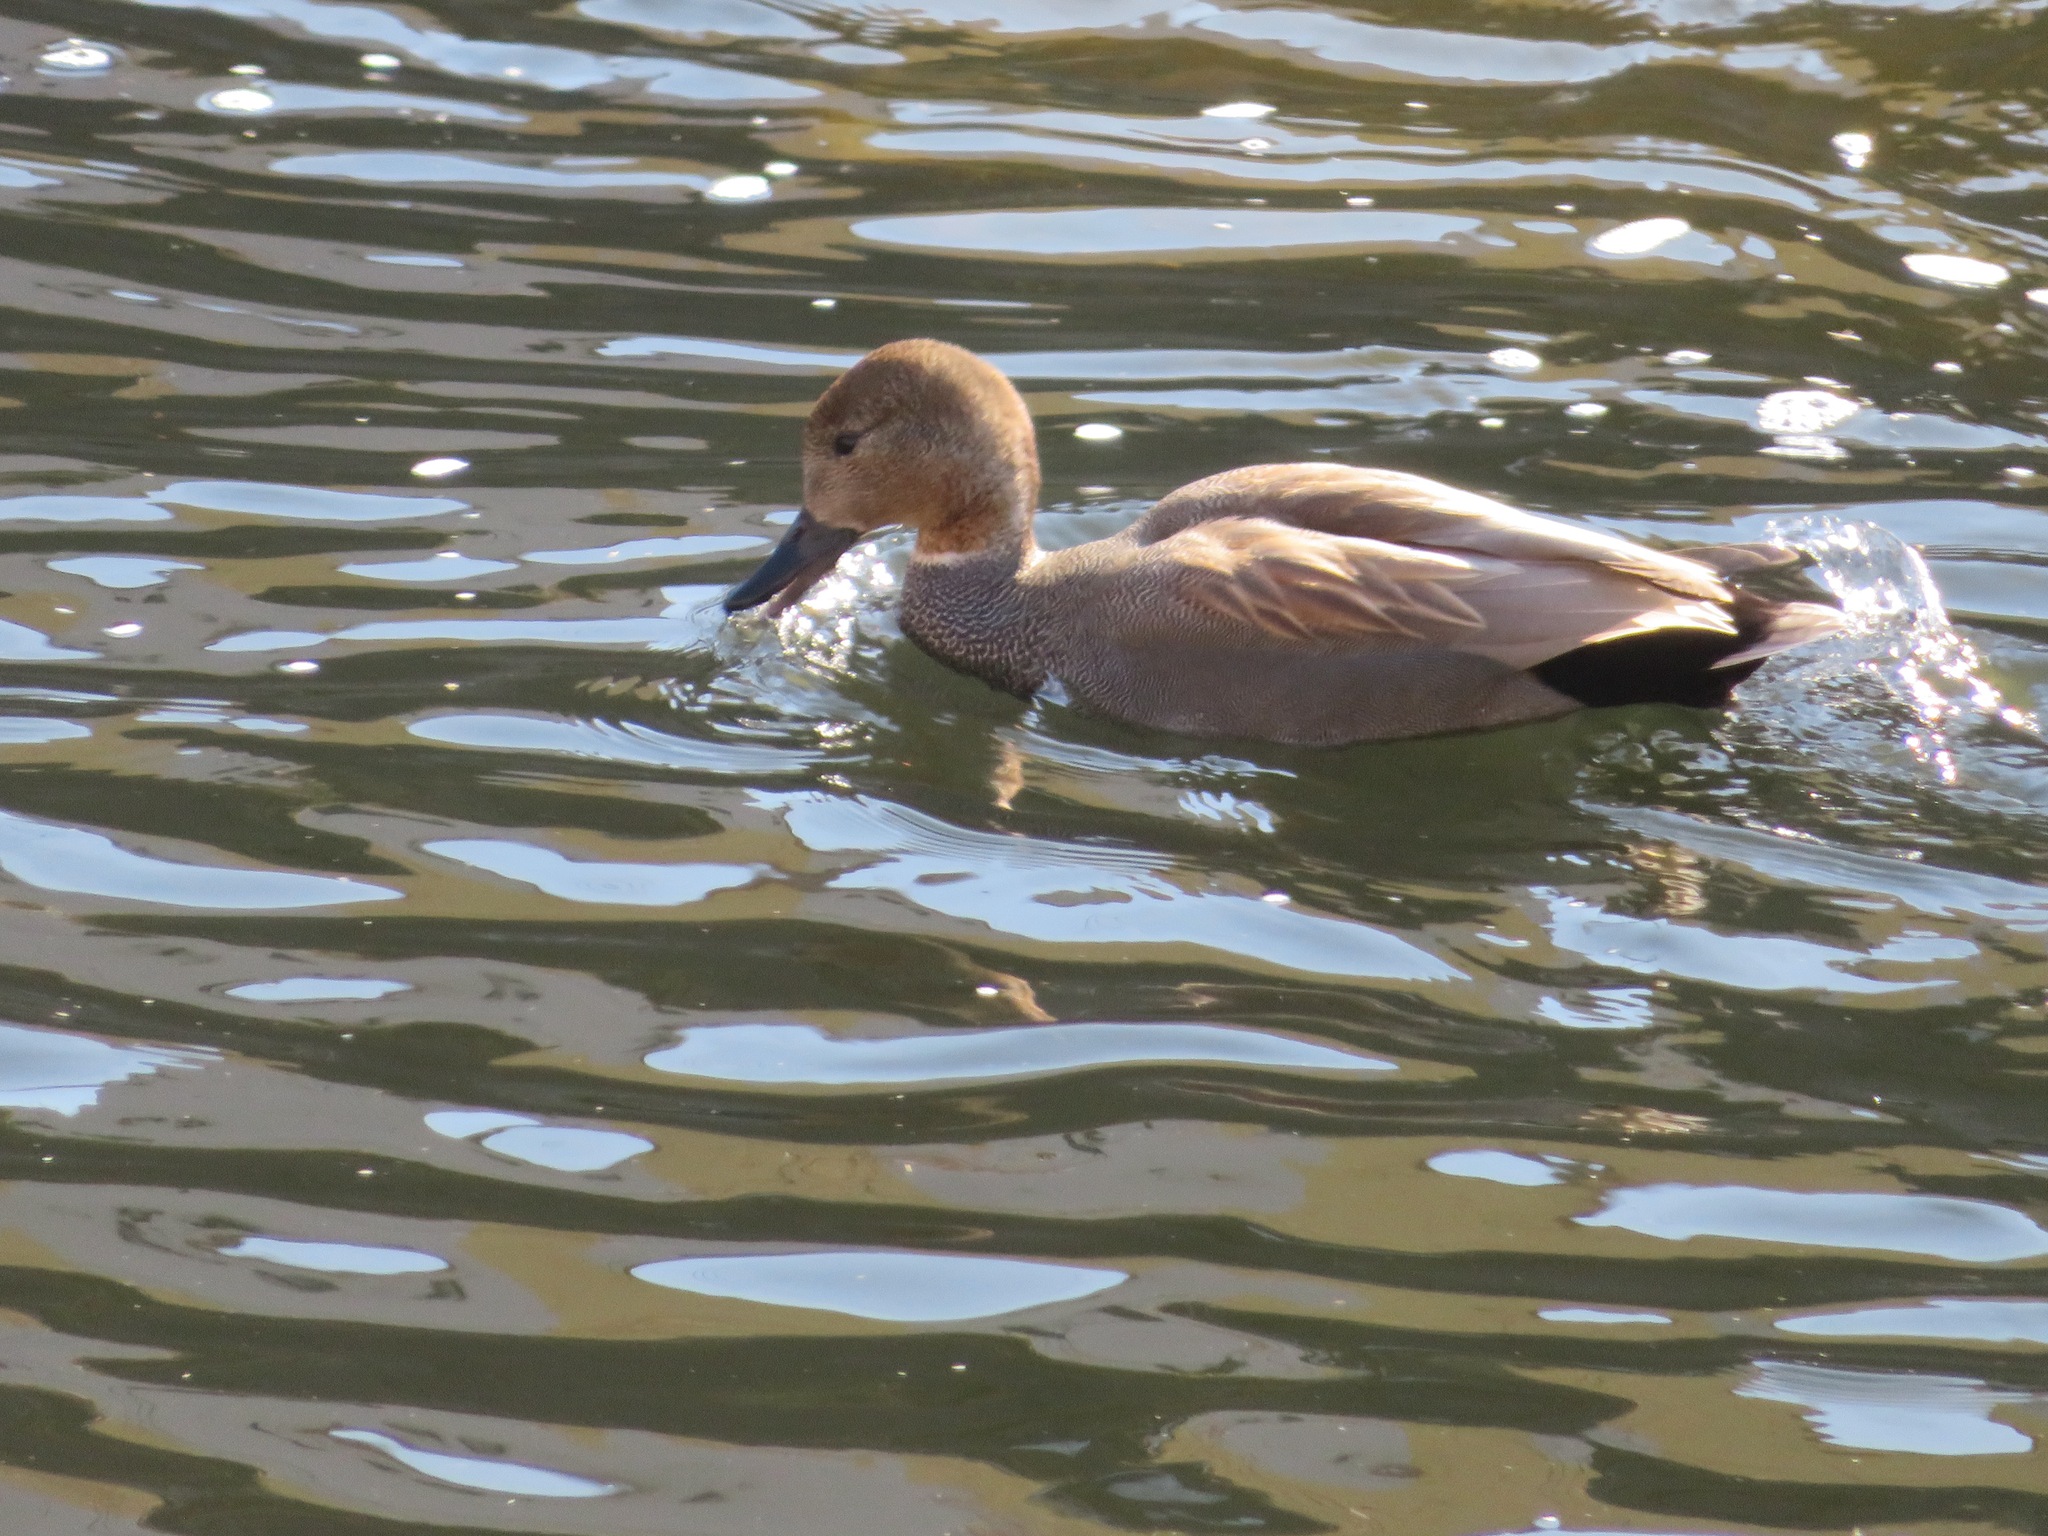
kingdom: Animalia
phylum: Chordata
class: Aves
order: Anseriformes
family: Anatidae
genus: Mareca
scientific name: Mareca strepera
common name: Gadwall
